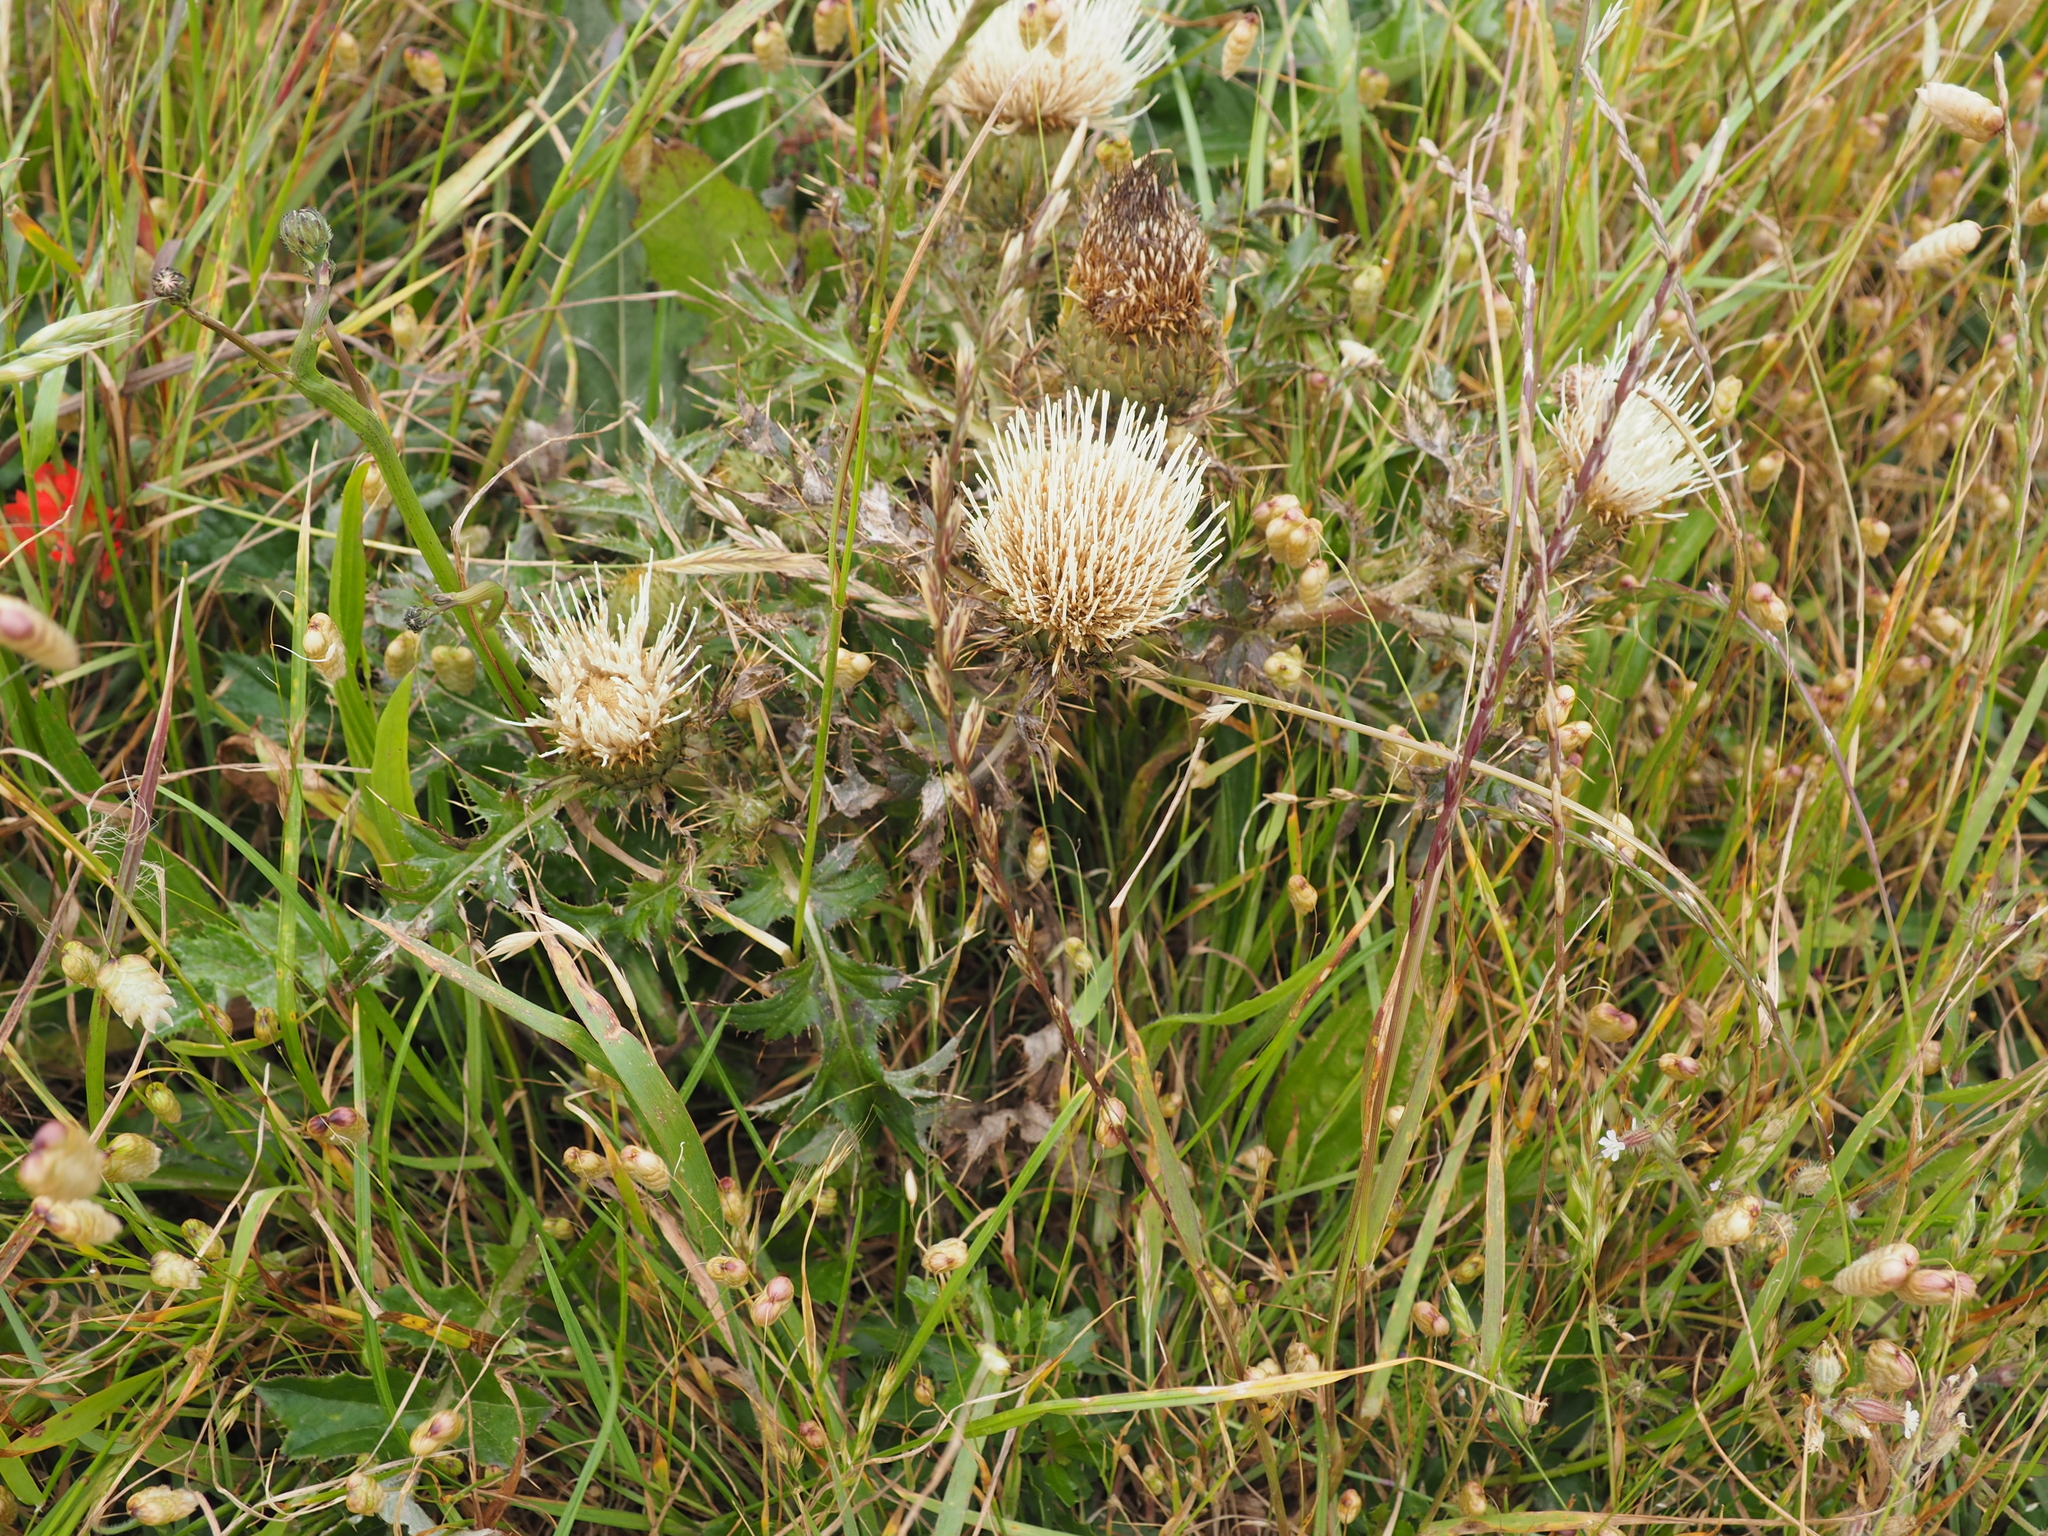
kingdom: Plantae
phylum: Tracheophyta
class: Magnoliopsida
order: Asterales
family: Asteraceae
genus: Cirsium
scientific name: Cirsium quercetorum
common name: Alameda county thistle
